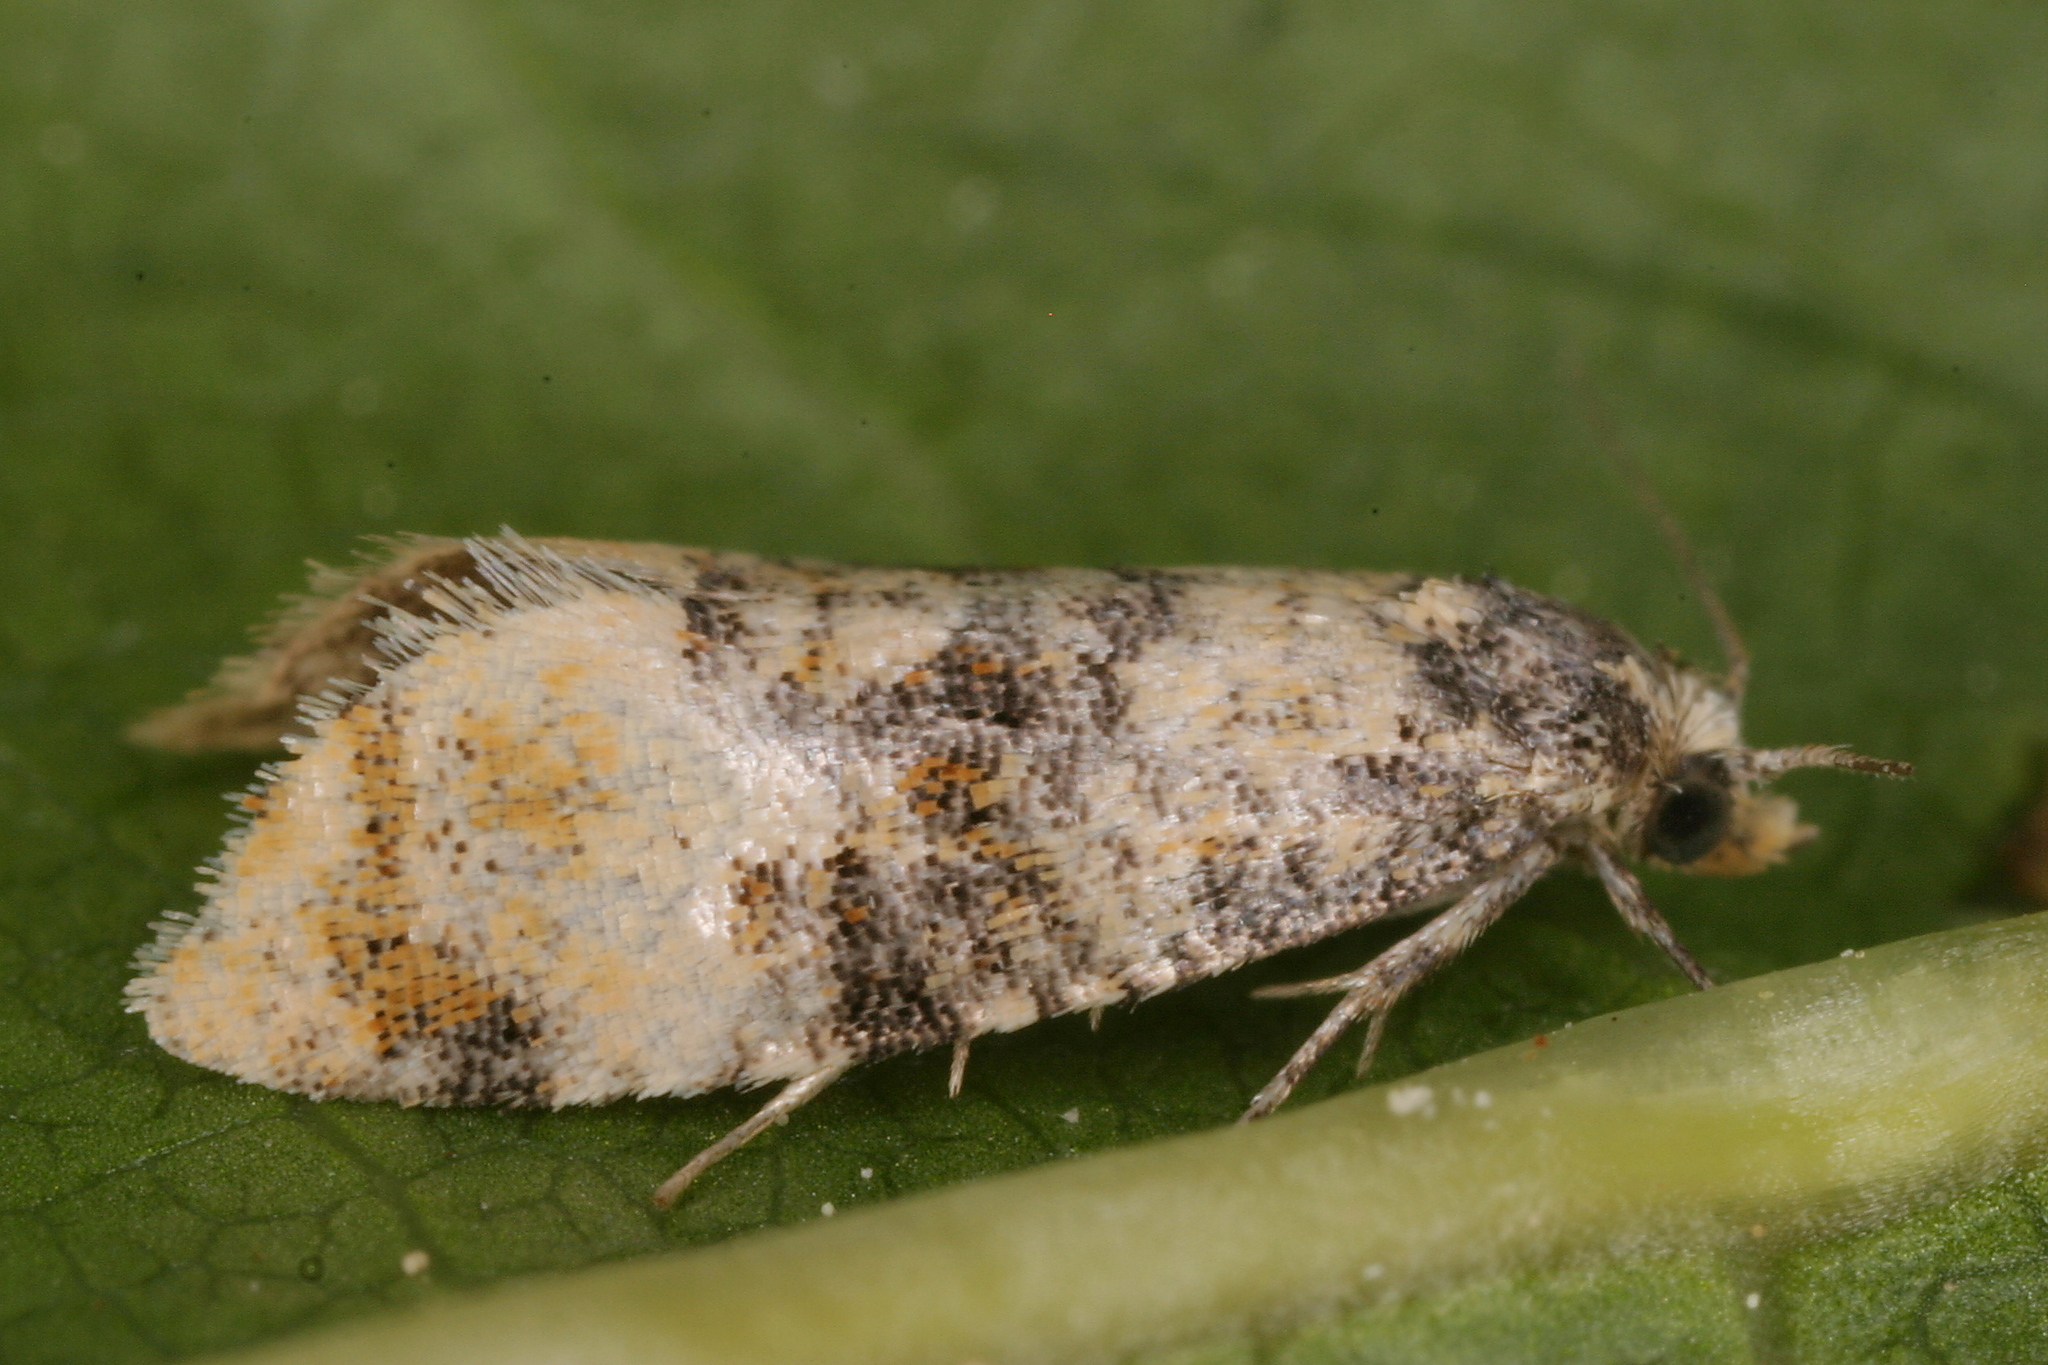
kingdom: Animalia
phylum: Arthropoda
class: Insecta
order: Lepidoptera
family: Tortricidae
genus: Thyraylia
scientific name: Thyraylia nana
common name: Birch conch
